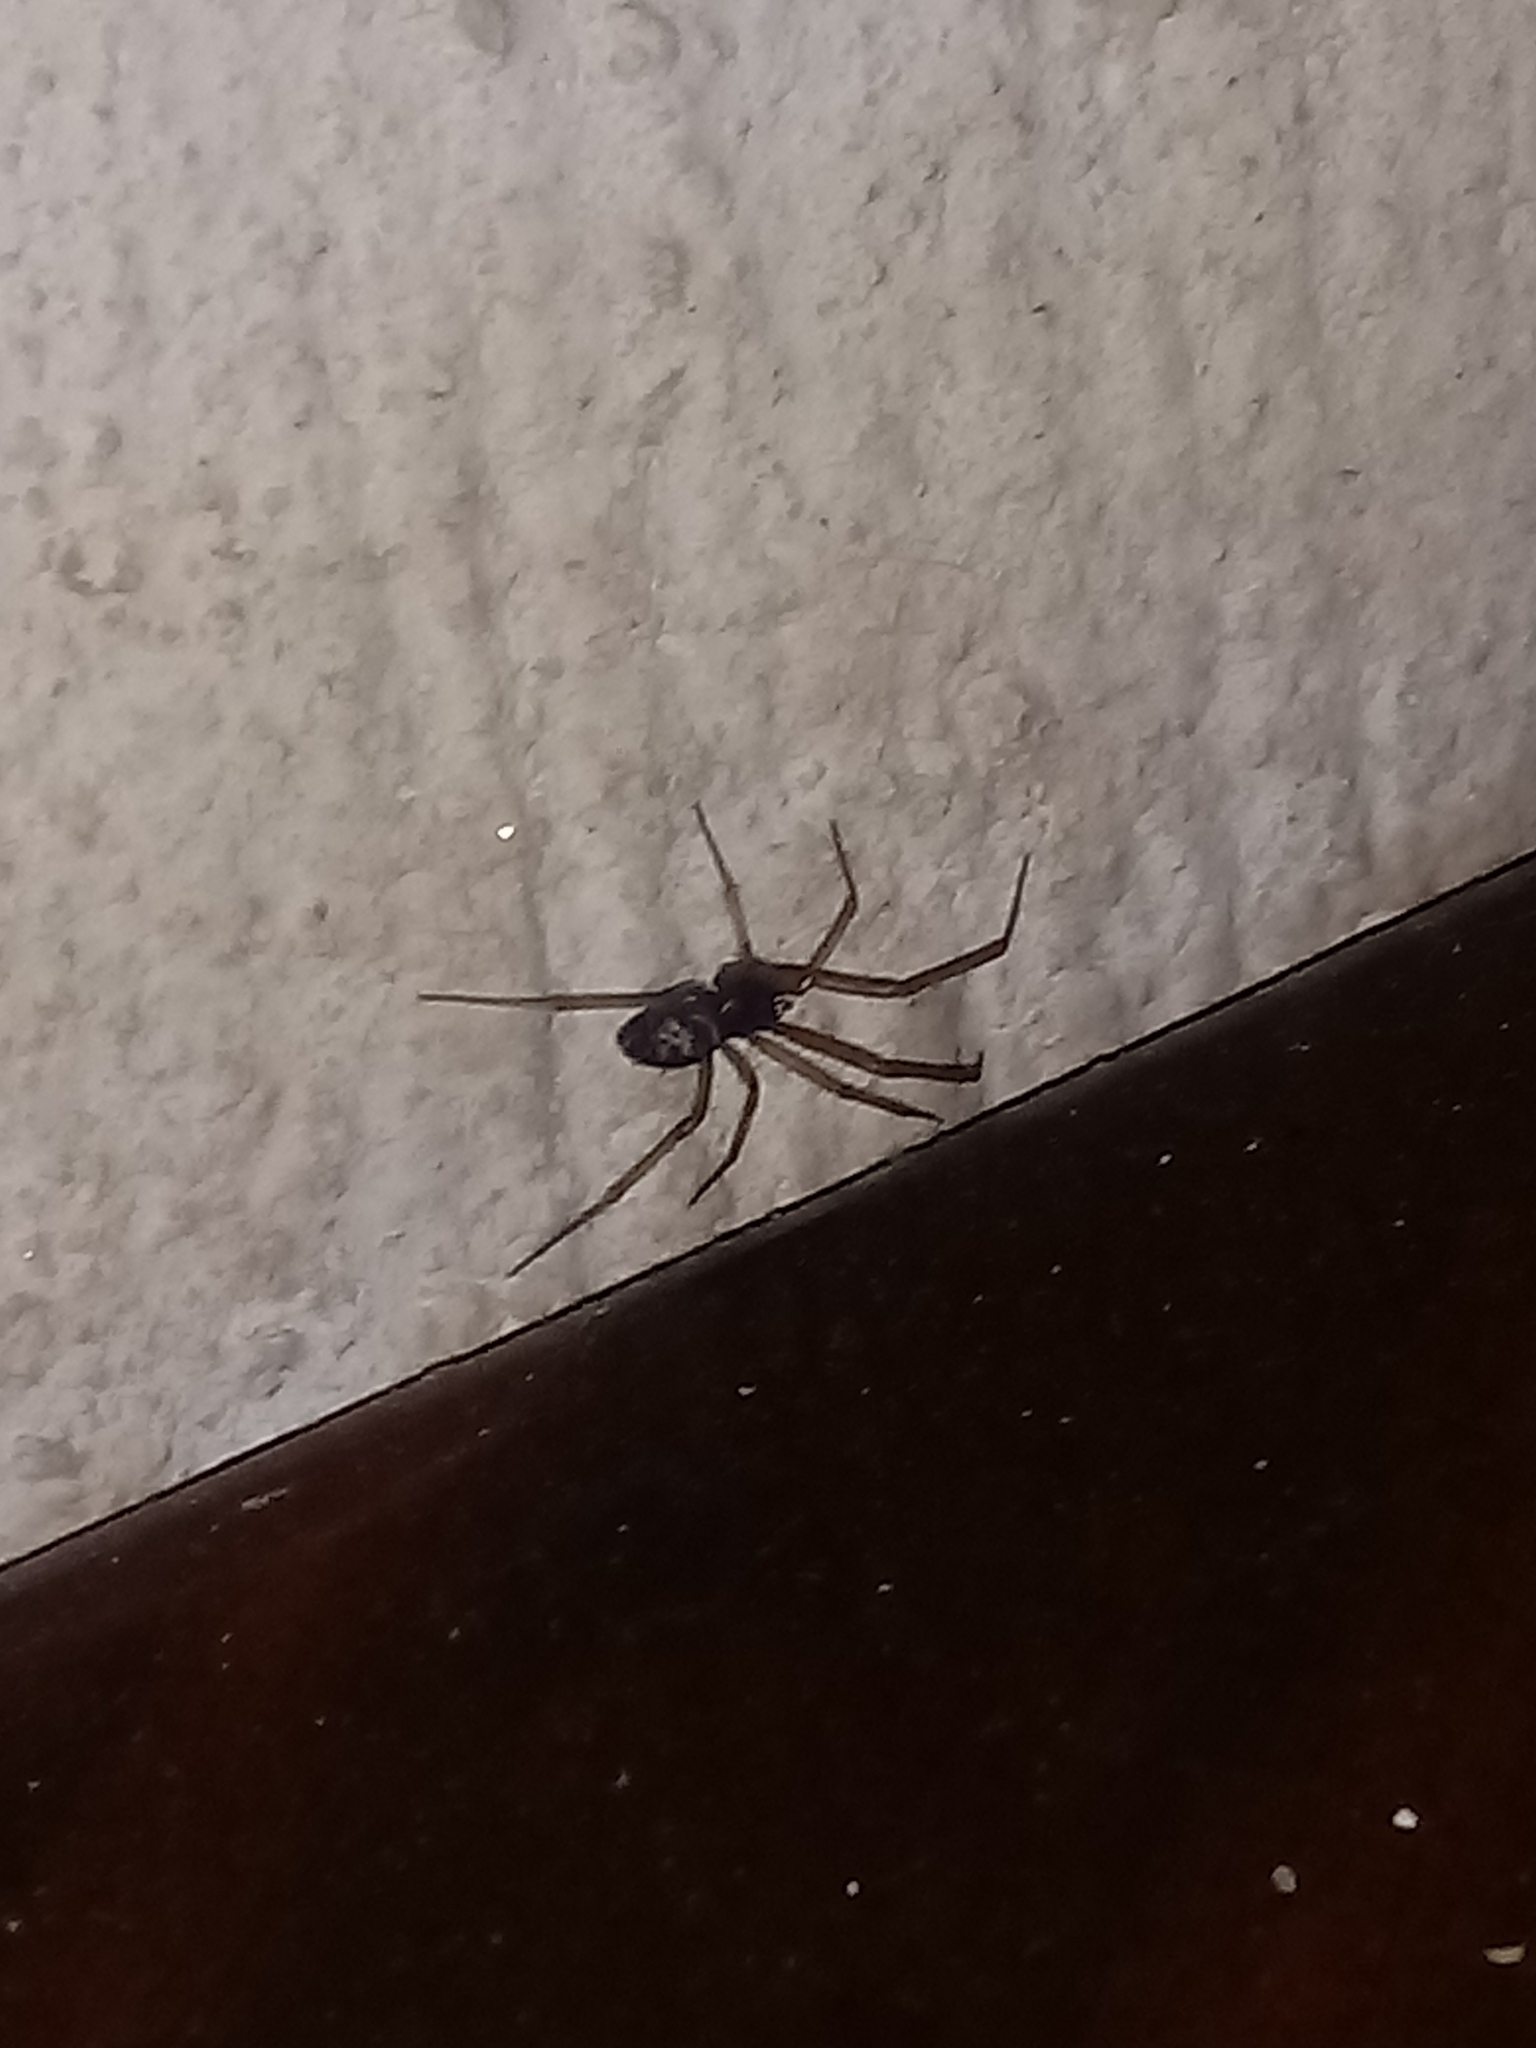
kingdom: Animalia
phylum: Arthropoda
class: Arachnida
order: Araneae
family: Theridiidae
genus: Steatoda
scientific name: Steatoda nobilis
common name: Cobweb weaver
